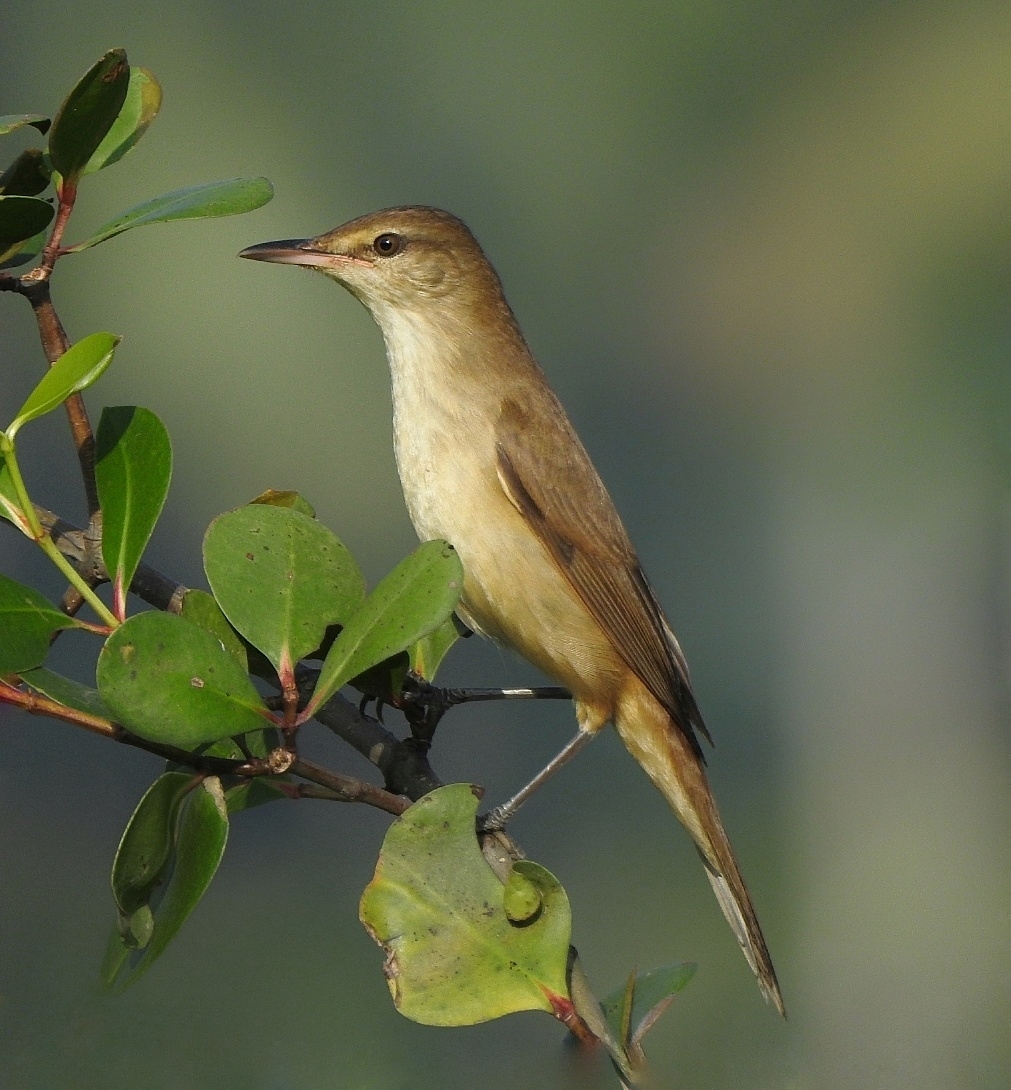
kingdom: Animalia
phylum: Chordata
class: Aves
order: Passeriformes
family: Acrocephalidae
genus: Acrocephalus
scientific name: Acrocephalus stentoreus
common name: Clamorous reed warbler
